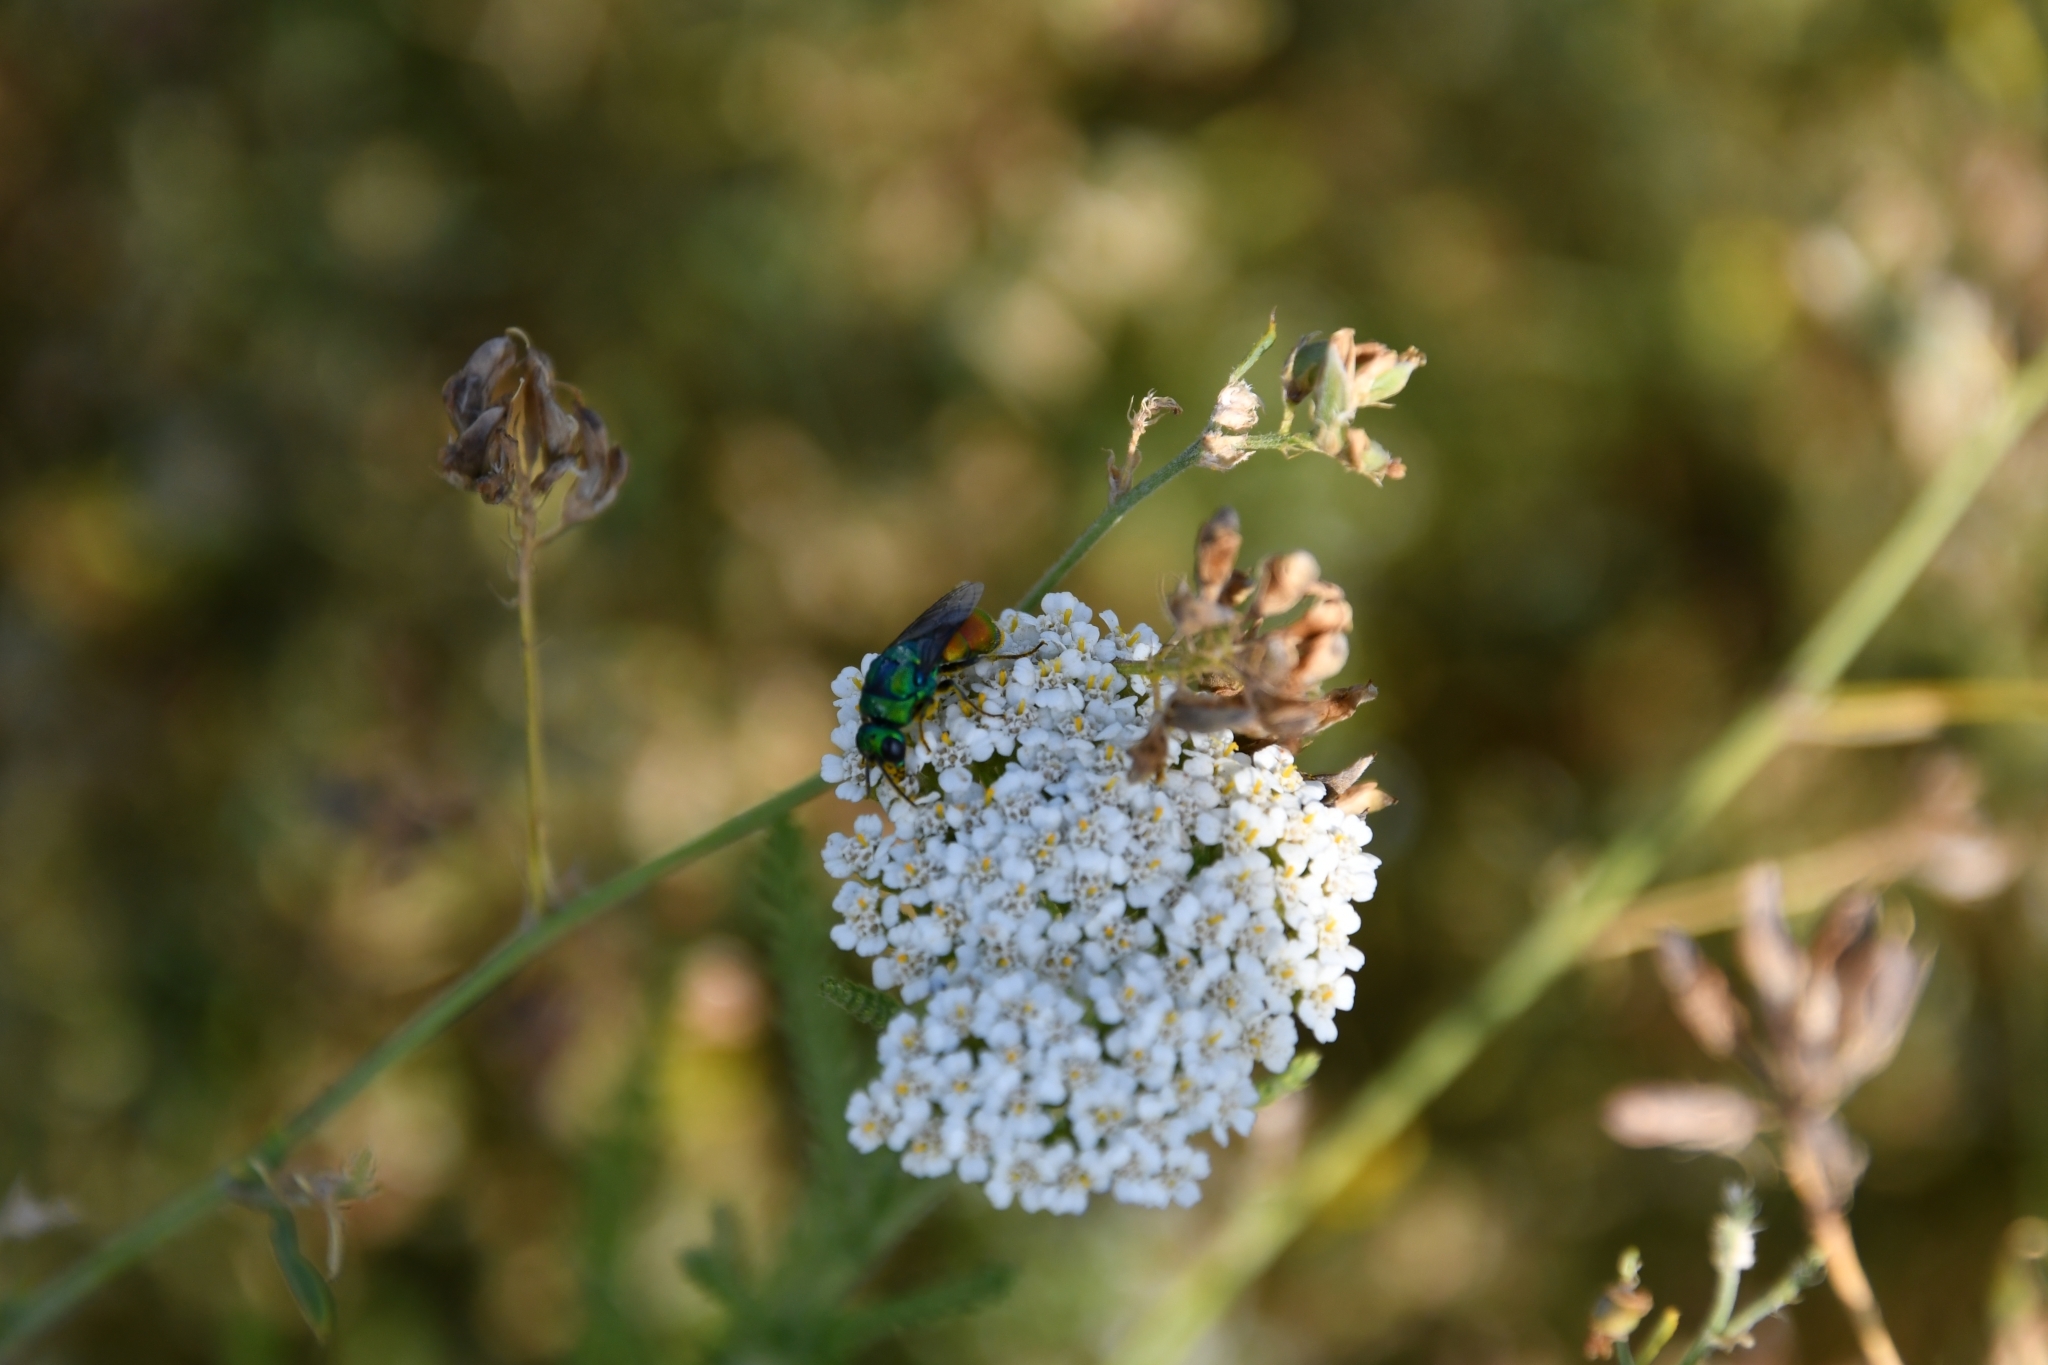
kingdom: Animalia
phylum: Arthropoda
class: Insecta
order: Hymenoptera
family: Chrysididae
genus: Chrysis
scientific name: Chrysis chrysoprasina
